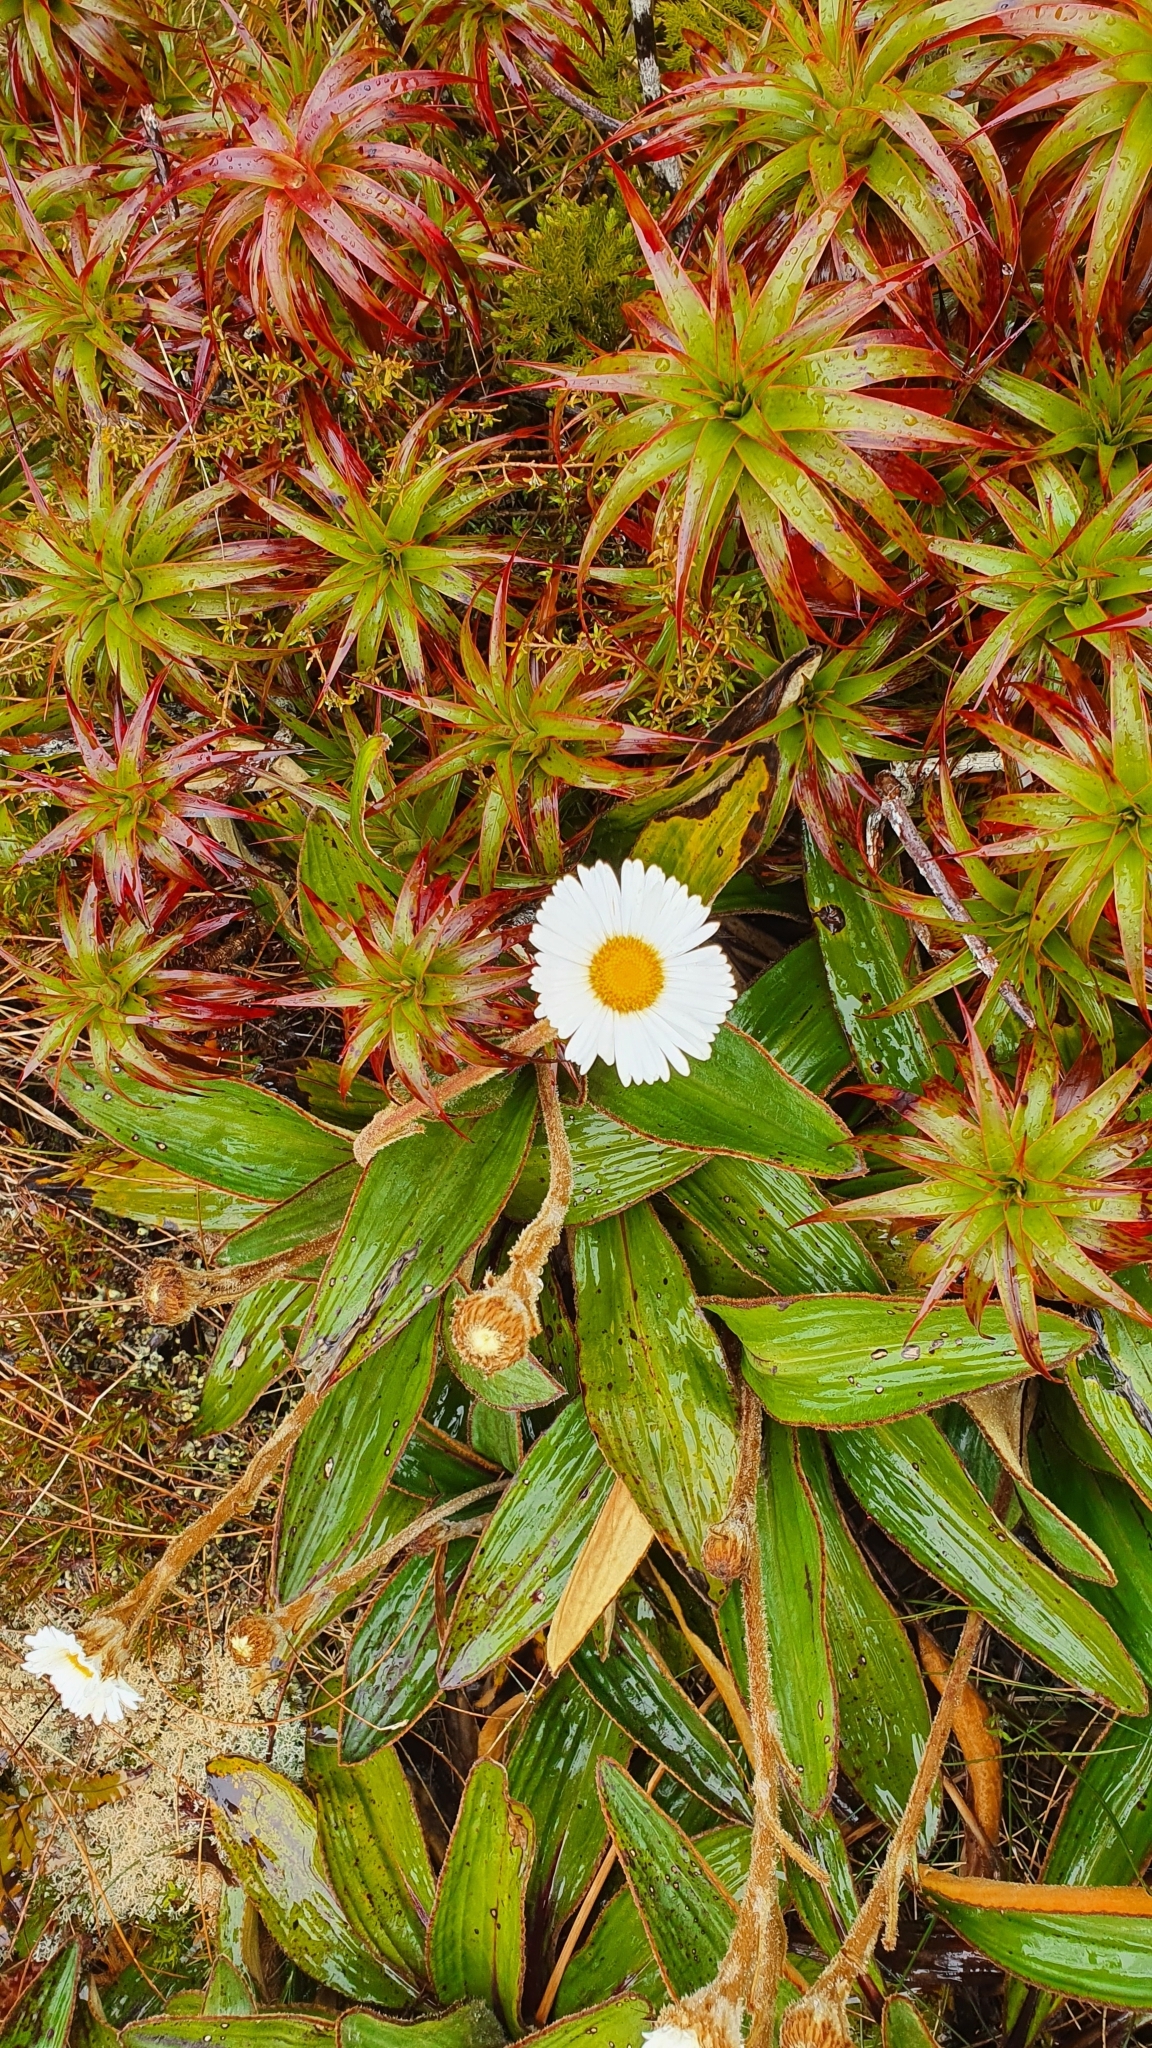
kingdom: Plantae
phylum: Tracheophyta
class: Magnoliopsida
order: Asterales
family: Asteraceae
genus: Celmisia
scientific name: Celmisia traversii
